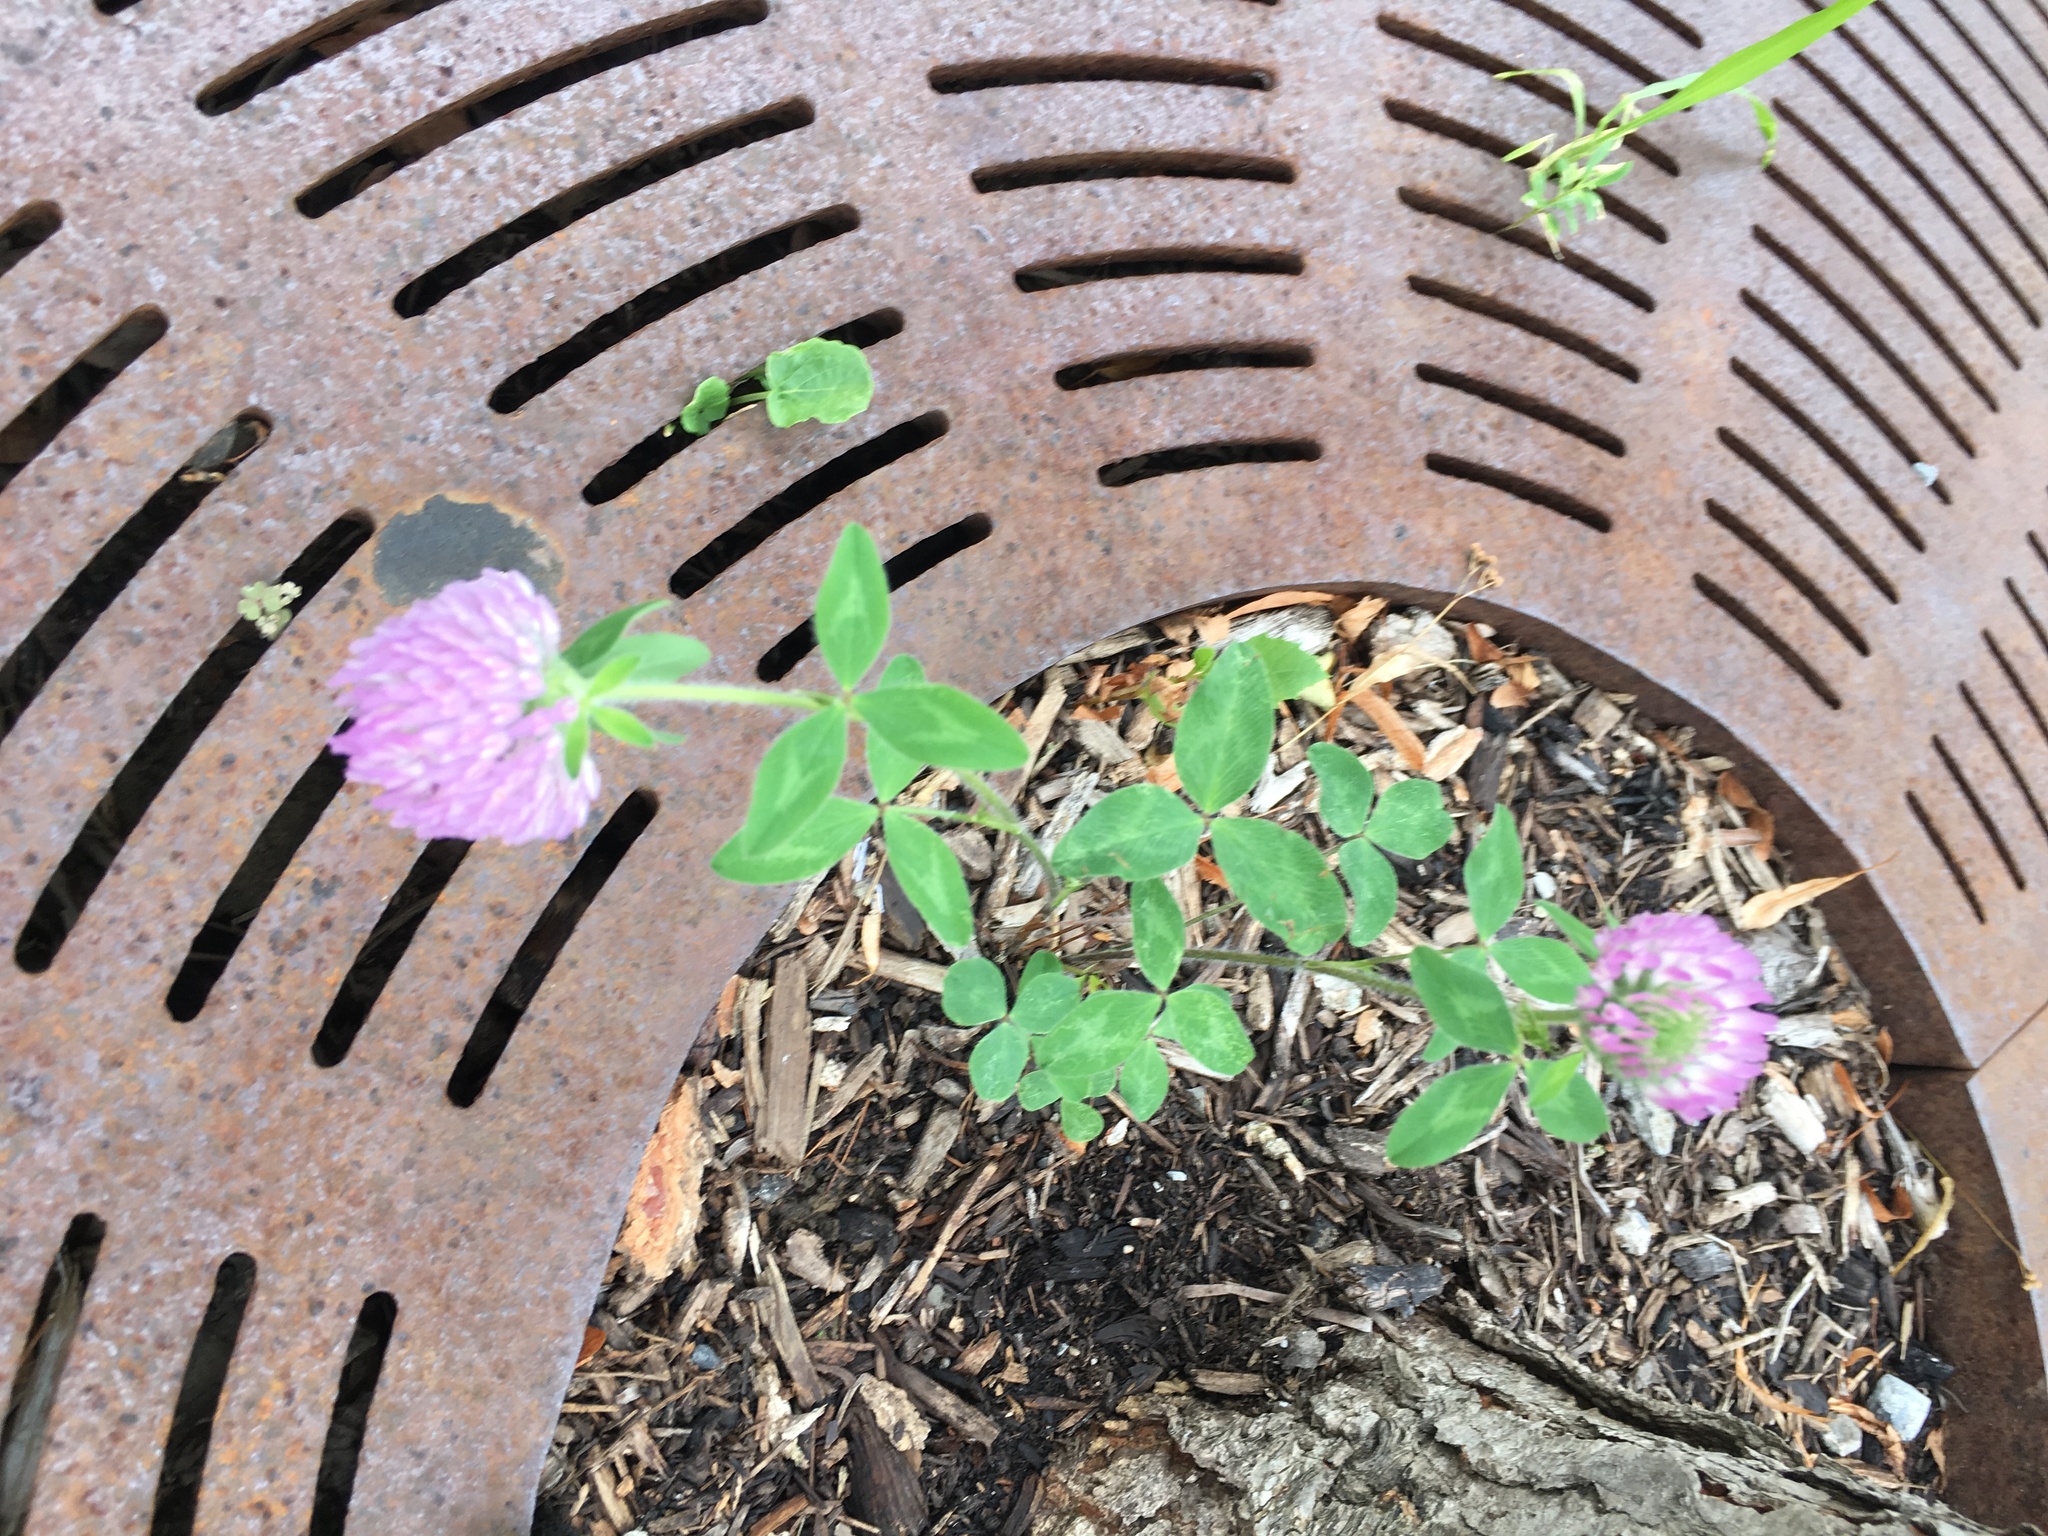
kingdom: Plantae
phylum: Tracheophyta
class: Magnoliopsida
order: Fabales
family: Fabaceae
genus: Trifolium
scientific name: Trifolium pratense
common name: Red clover
